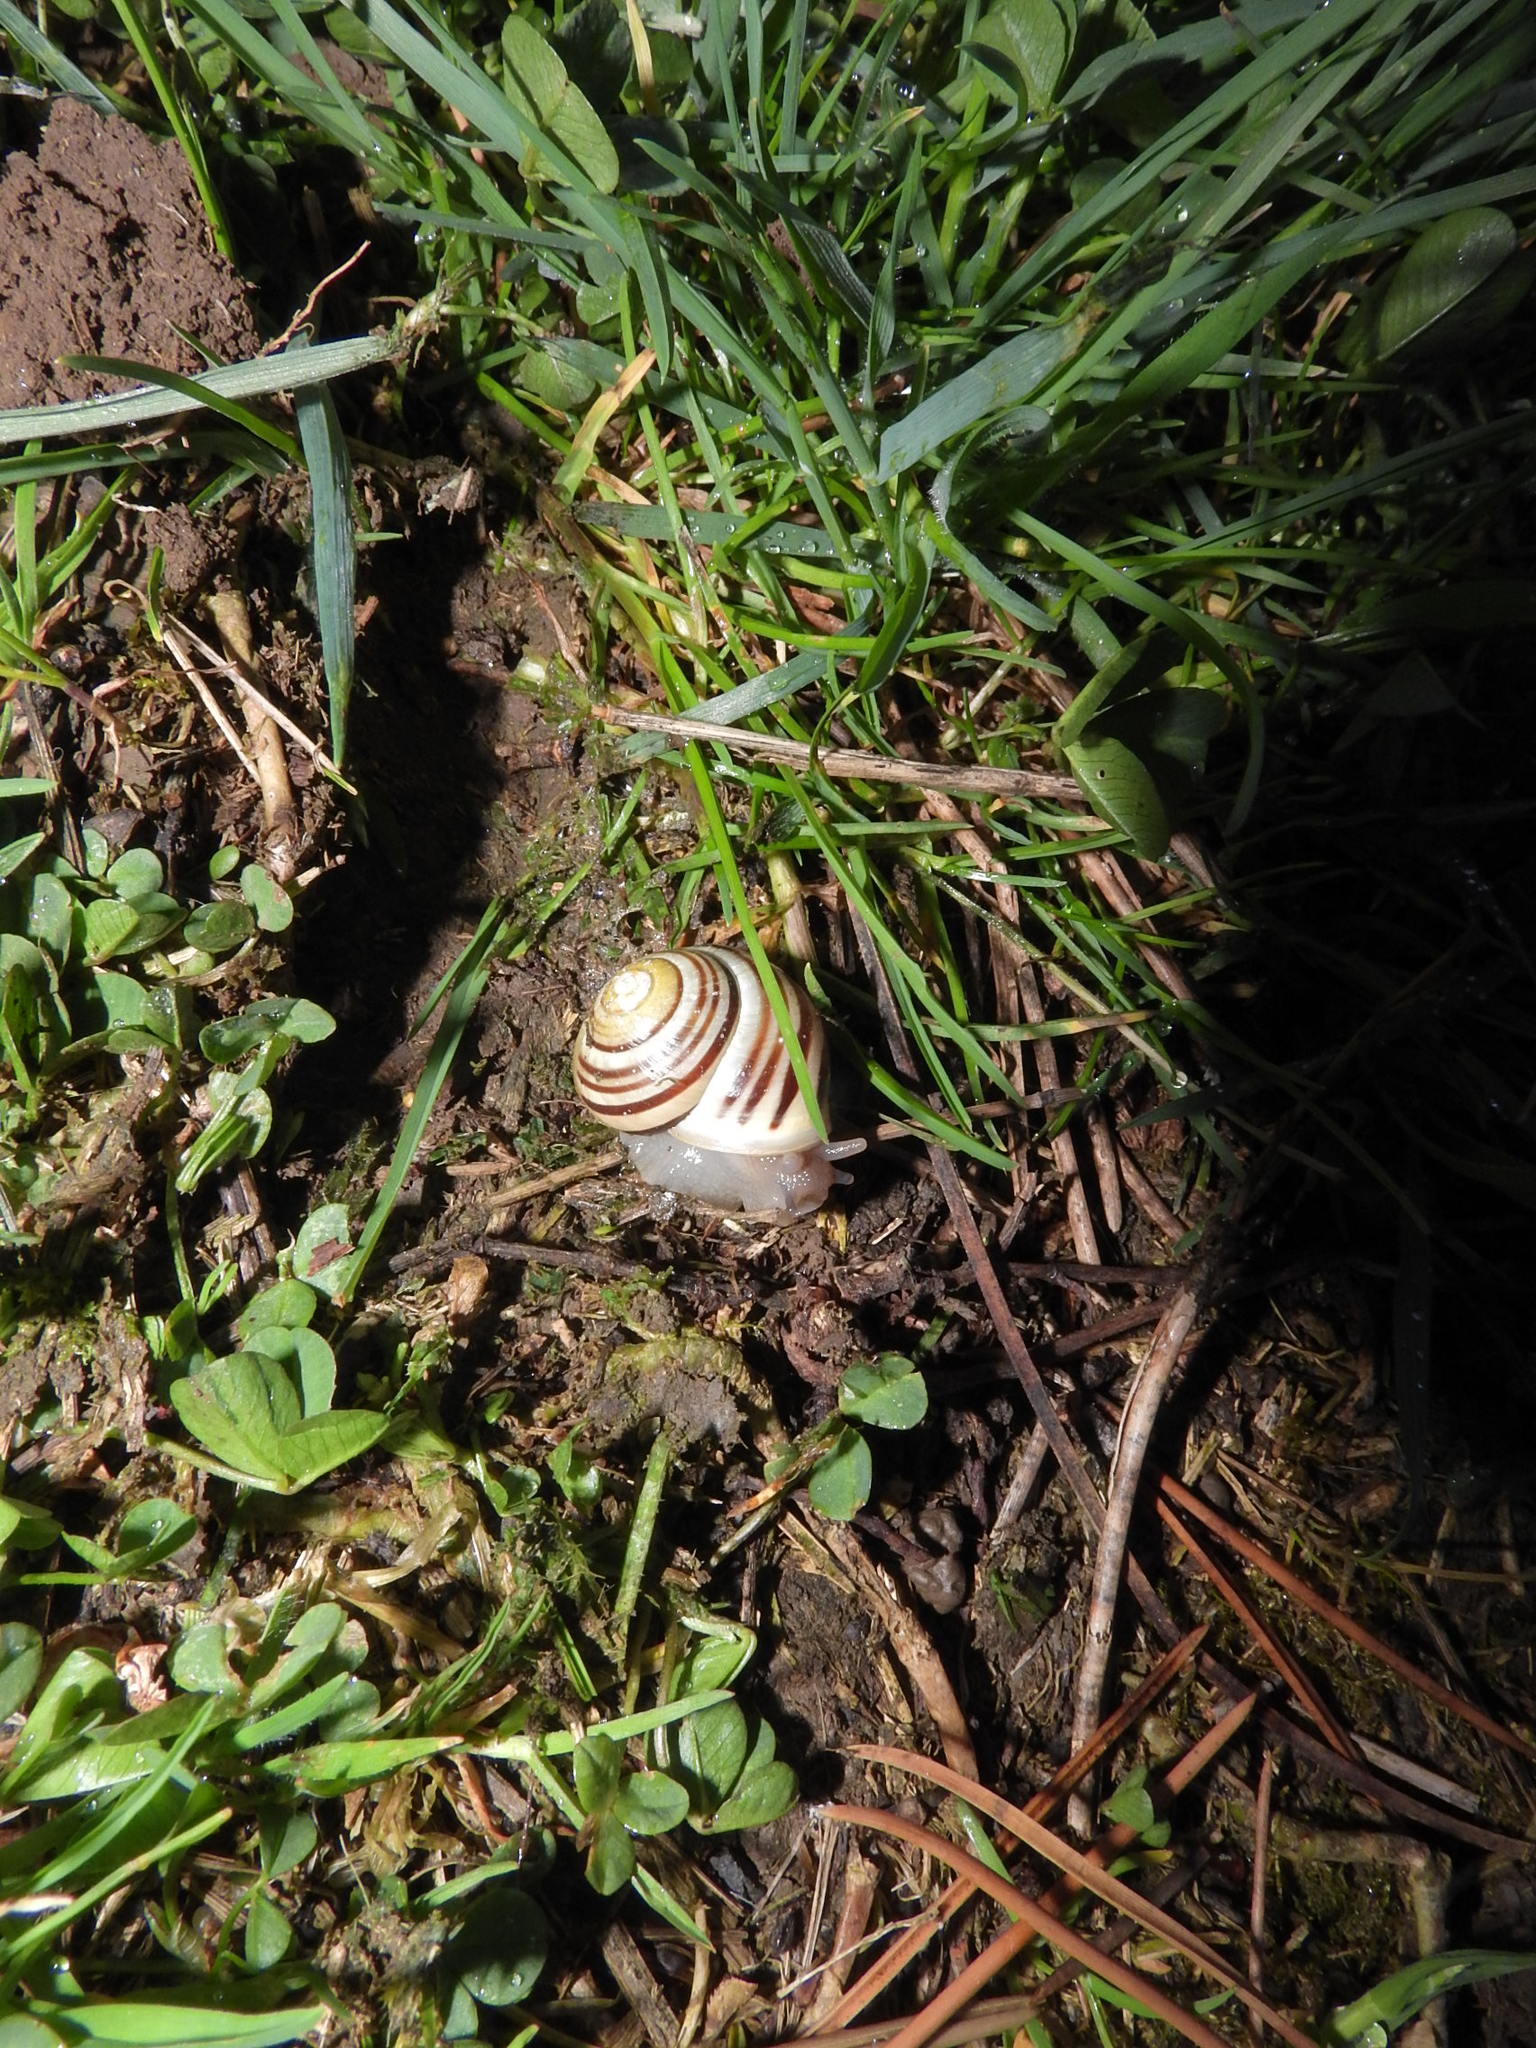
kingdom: Animalia
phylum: Mollusca
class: Gastropoda
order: Stylommatophora
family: Helicidae
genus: Cepaea
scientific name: Cepaea hortensis
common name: White-lip gardensnail
